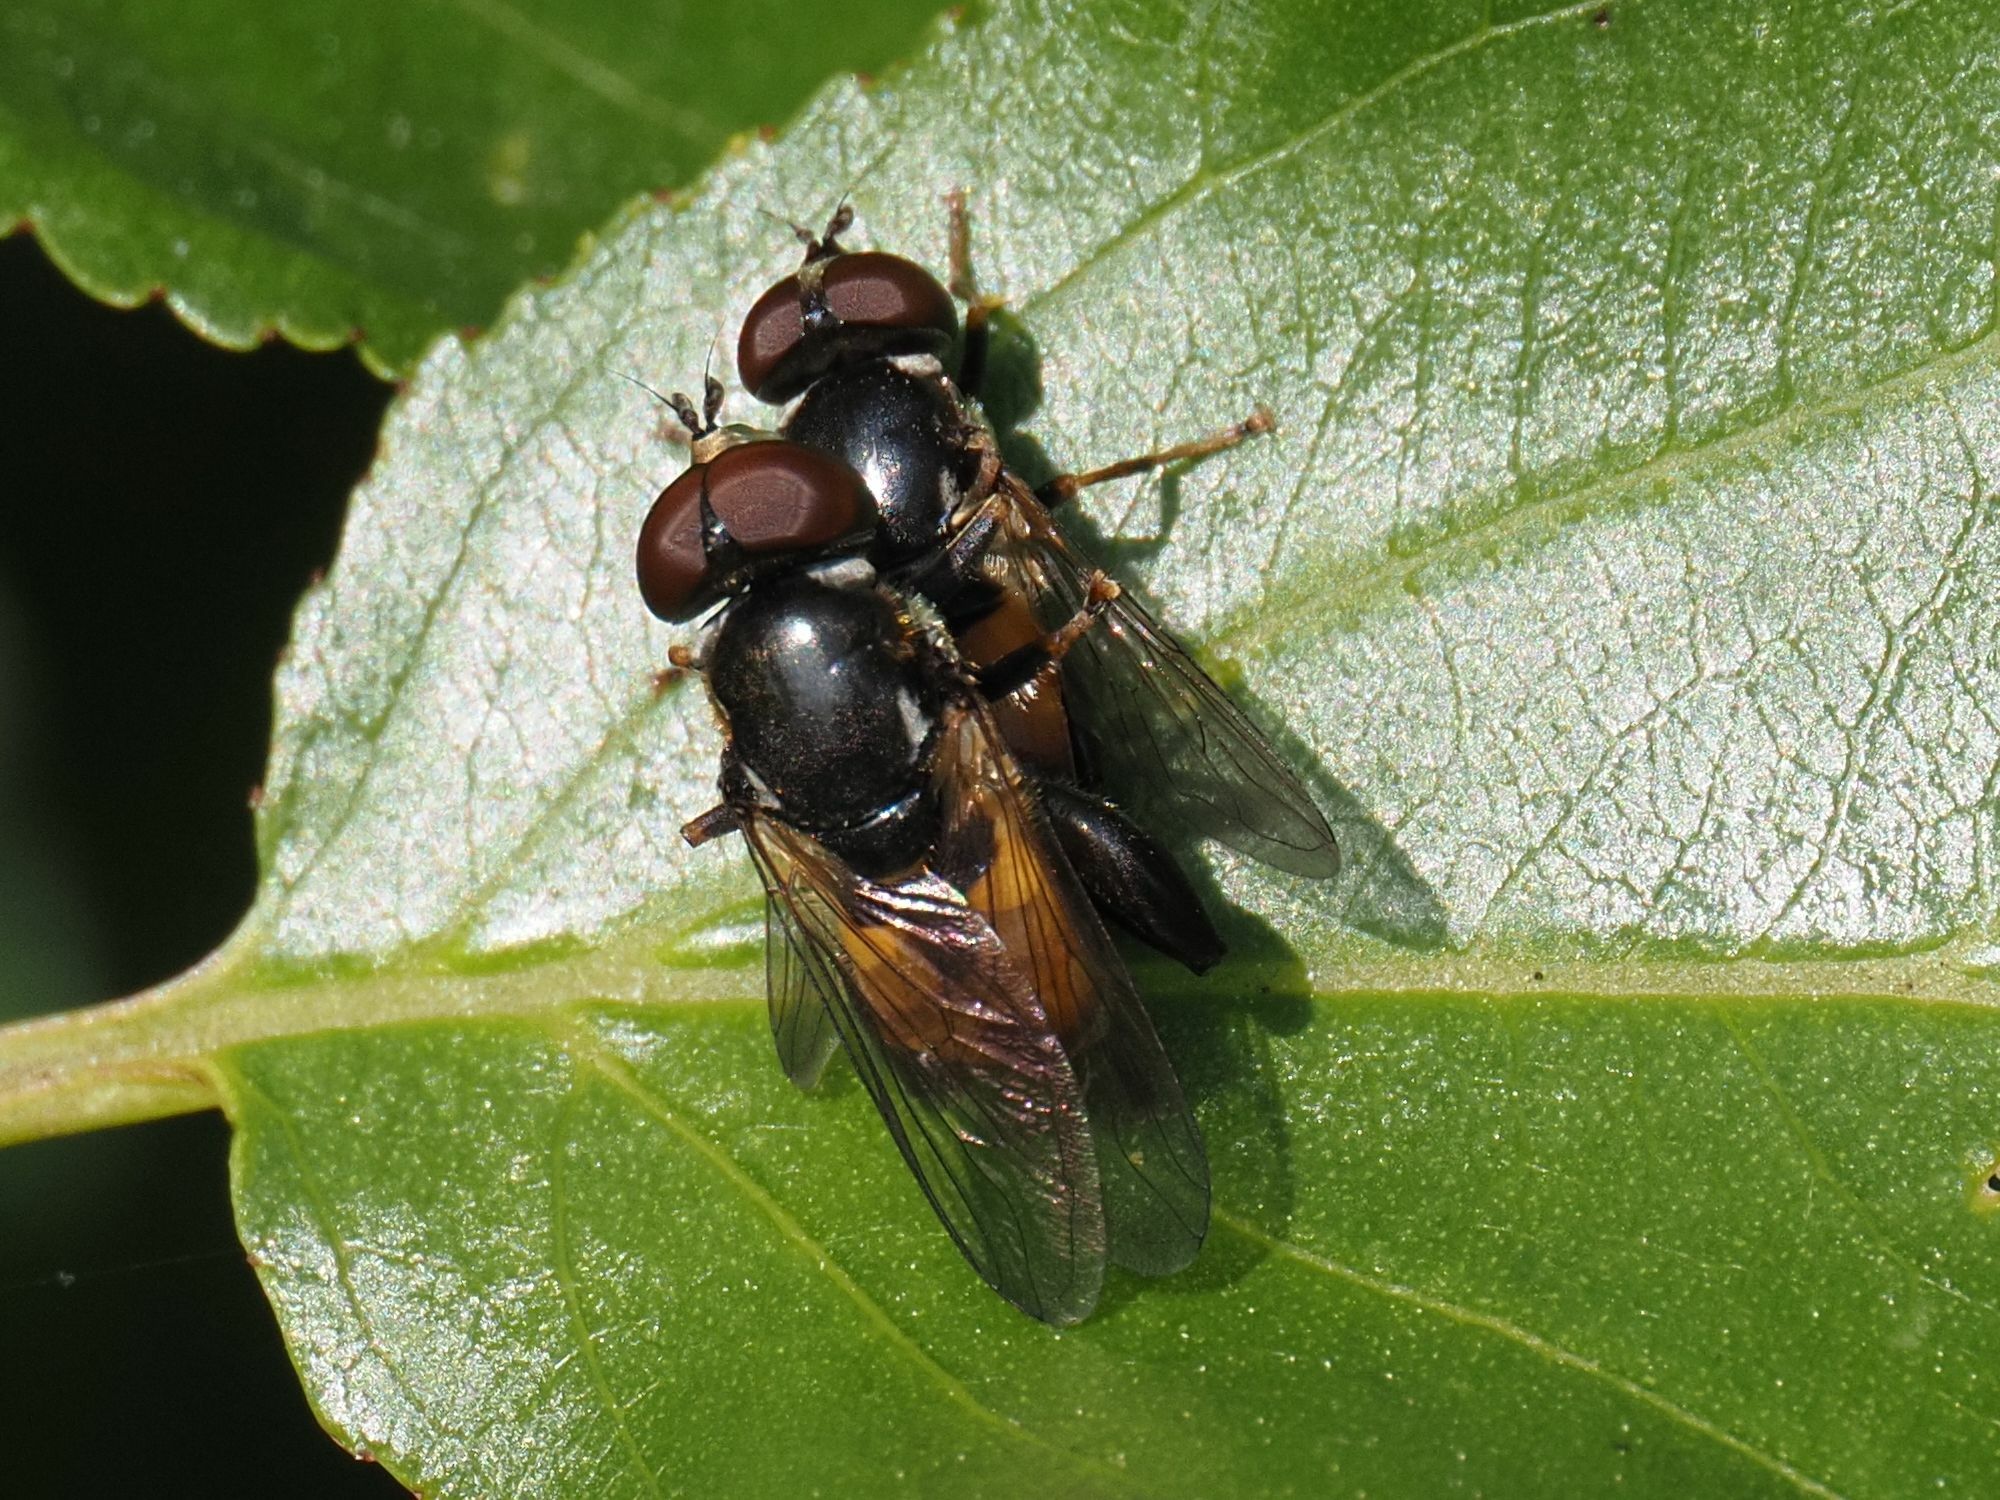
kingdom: Animalia
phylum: Arthropoda
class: Insecta
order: Diptera
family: Syrphidae
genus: Tropidia
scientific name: Tropidia scita
